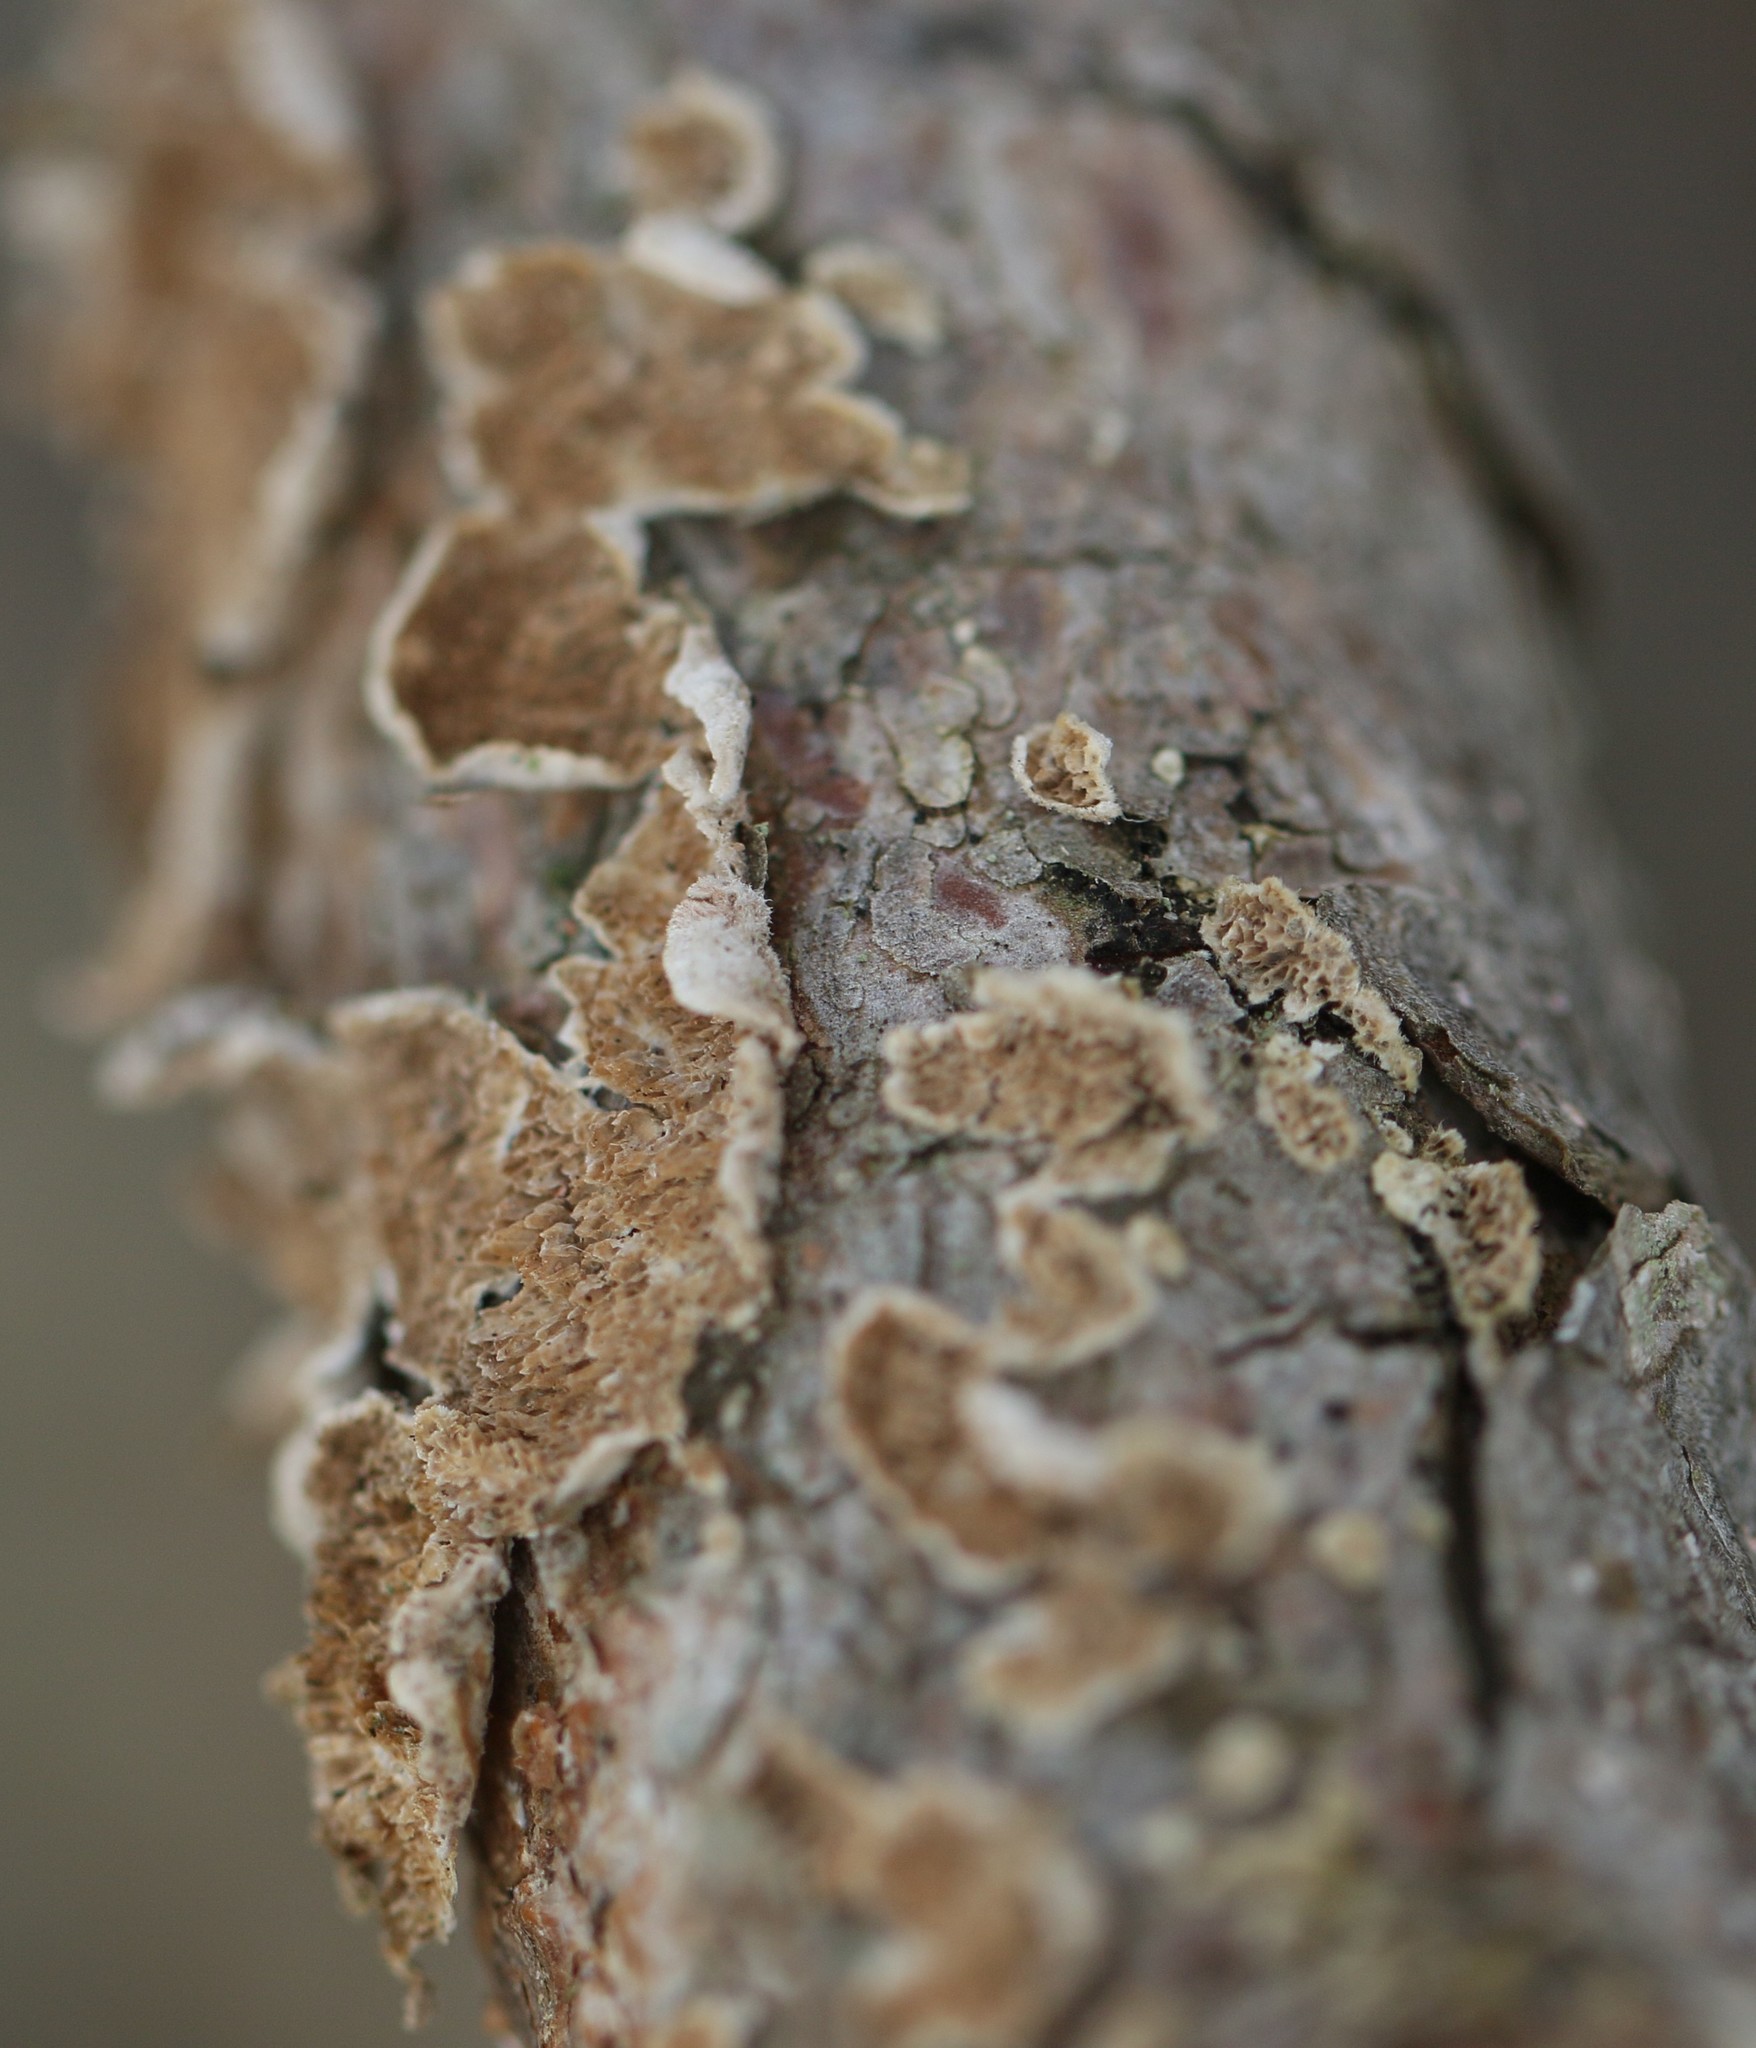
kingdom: Fungi
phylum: Basidiomycota
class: Agaricomycetes
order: Polyporales
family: Steccherinaceae
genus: Steccherinum
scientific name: Steccherinum ochraceum
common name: Ochre spreading tooth
